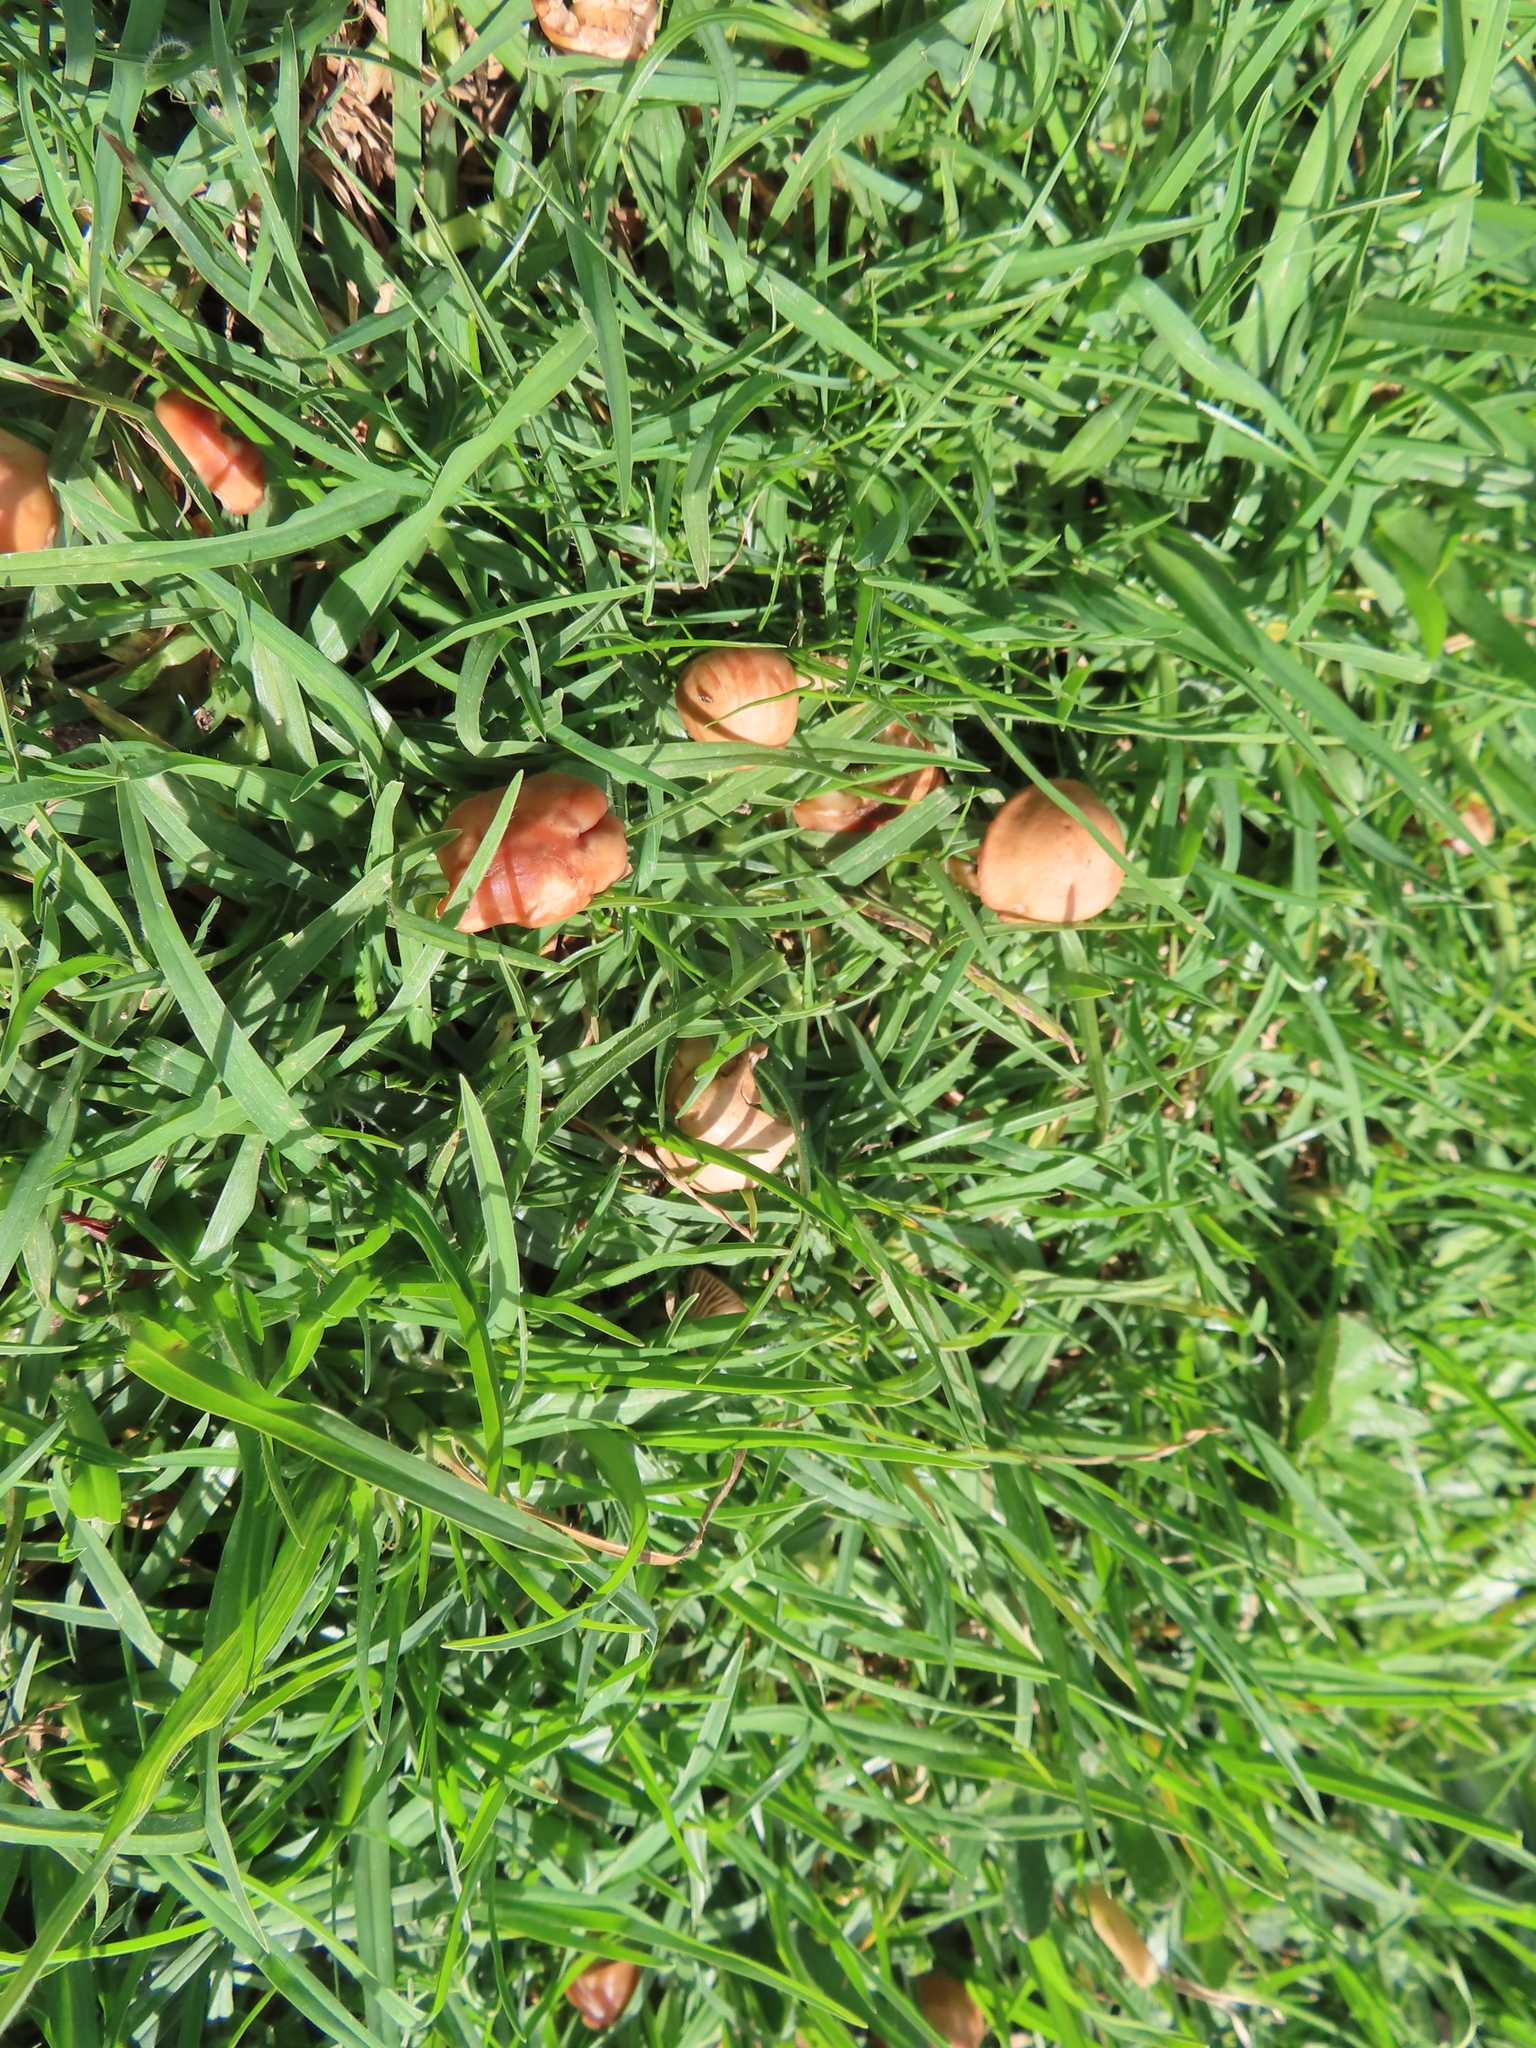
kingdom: Fungi
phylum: Basidiomycota
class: Agaricomycetes
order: Agaricales
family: Marasmiaceae
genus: Marasmius
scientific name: Marasmius oreades
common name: Fairy ring champignon
